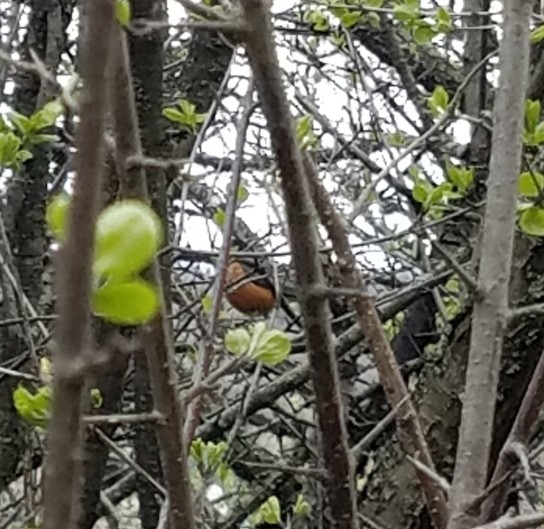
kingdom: Animalia
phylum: Chordata
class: Aves
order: Passeriformes
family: Turdidae
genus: Turdus
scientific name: Turdus migratorius
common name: American robin
